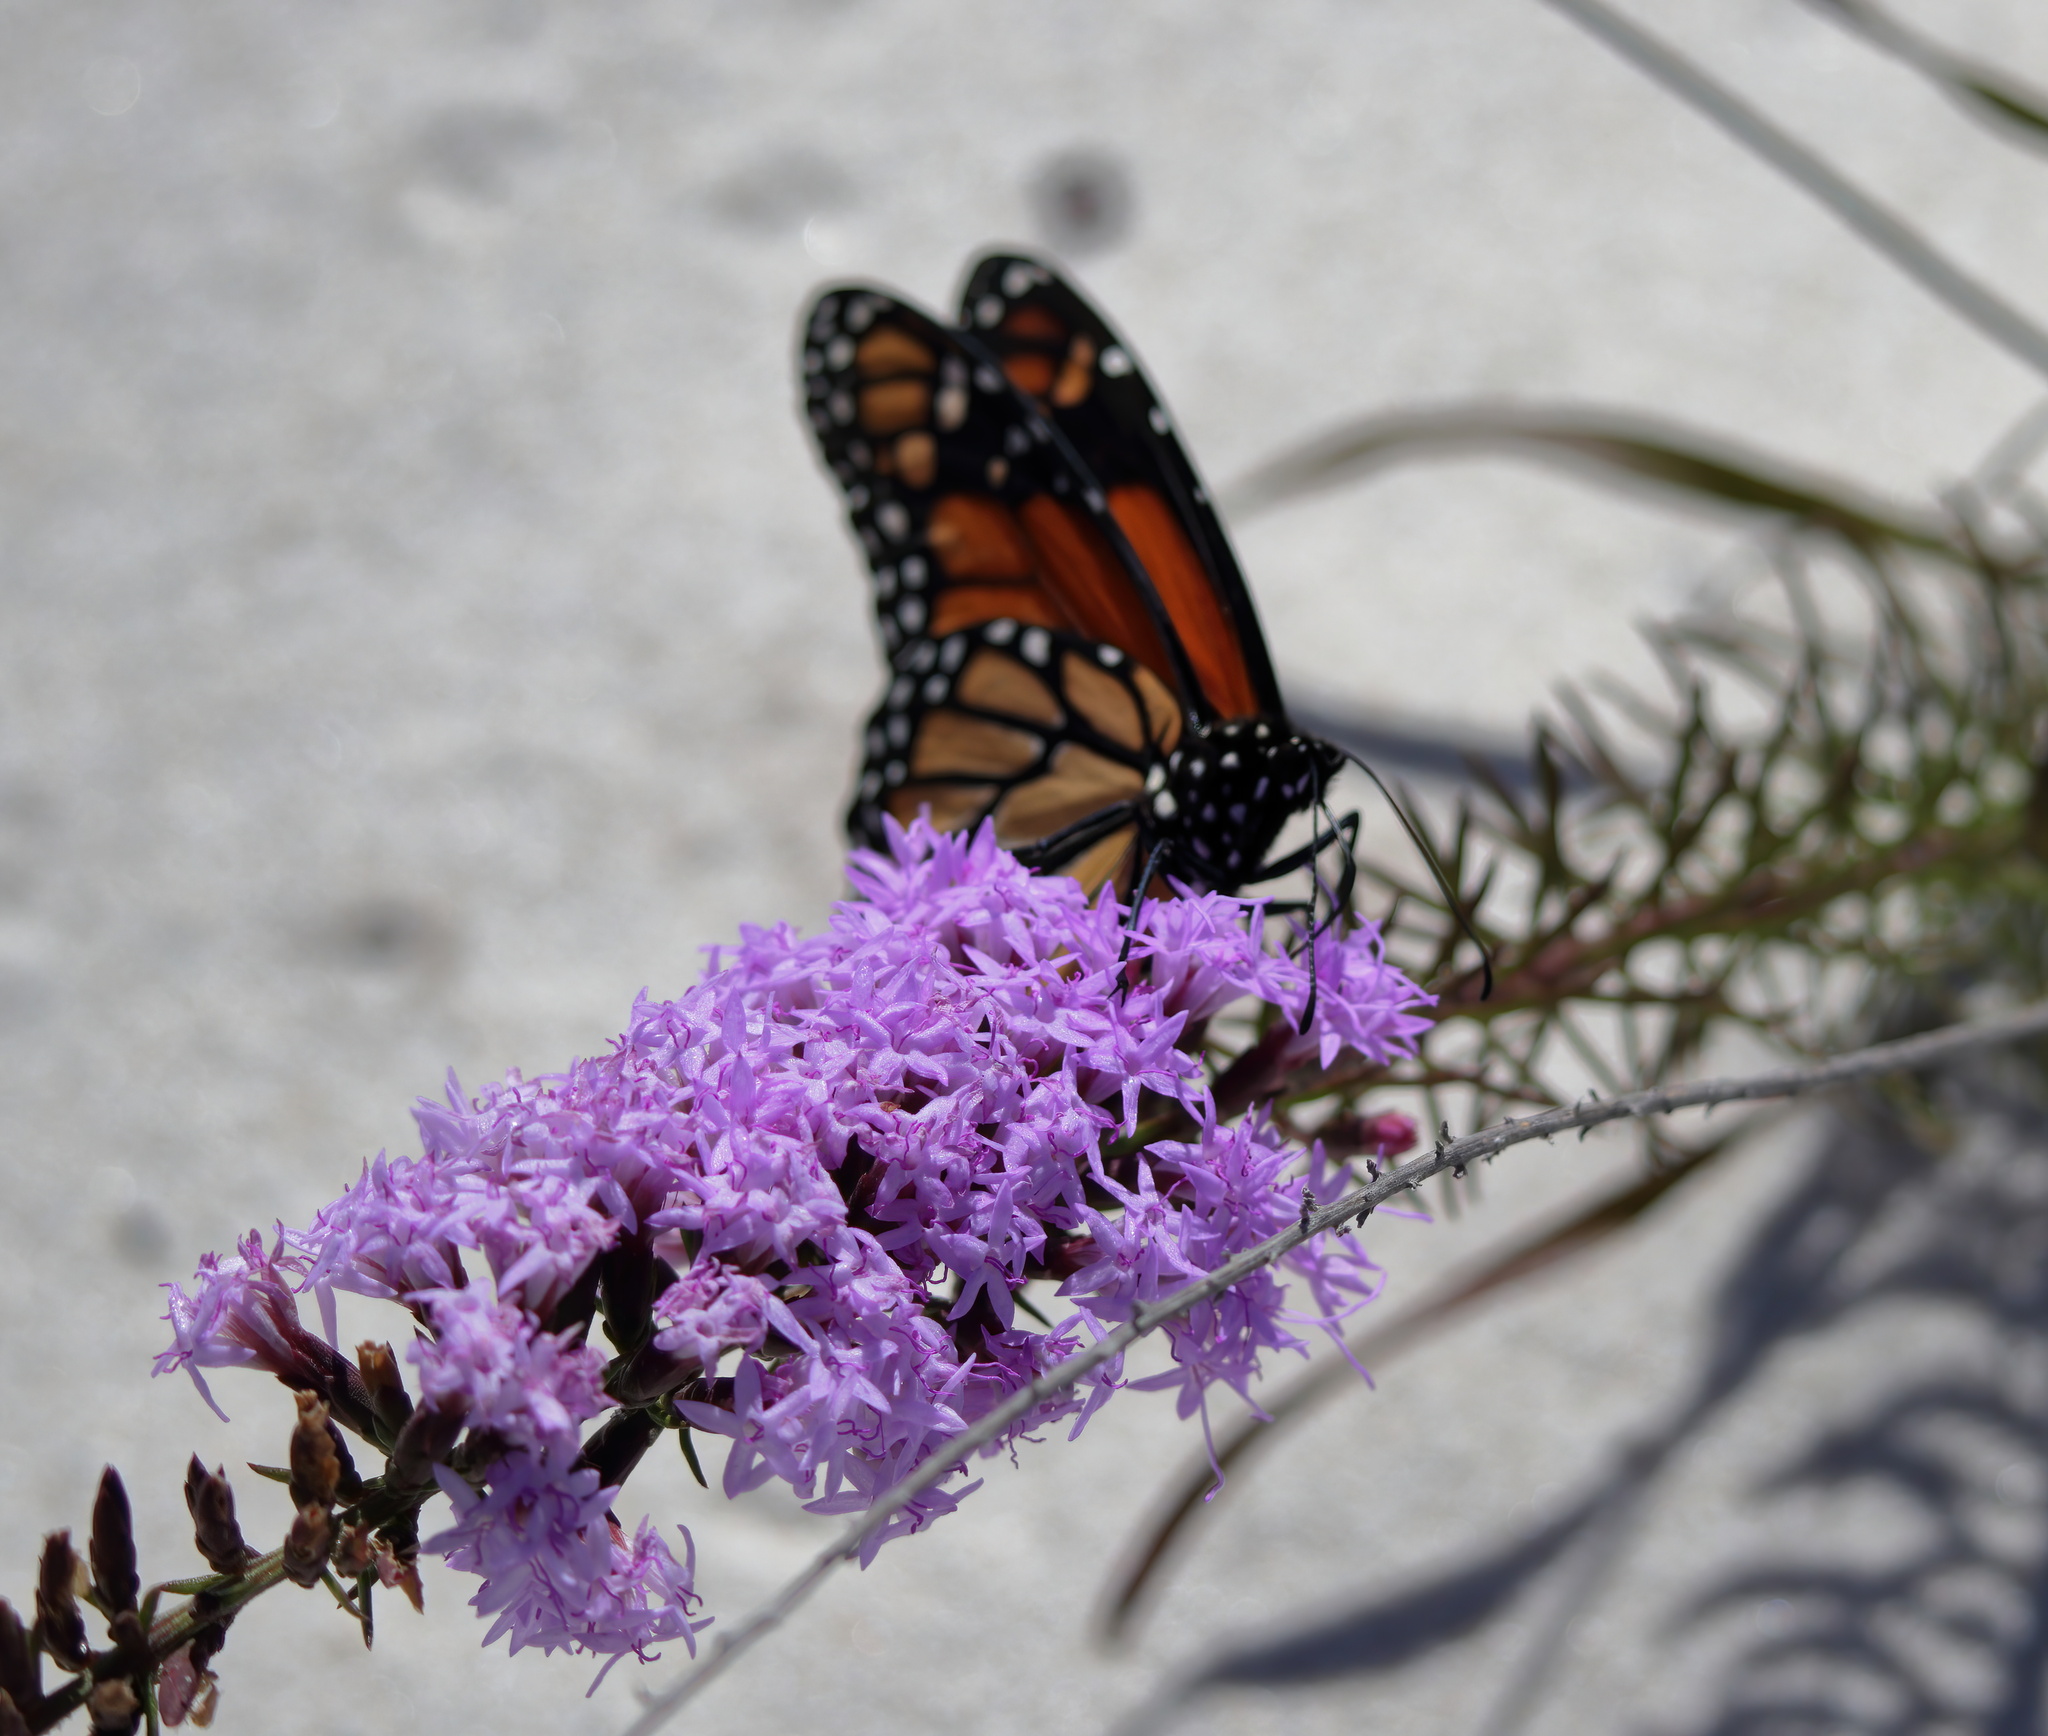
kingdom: Animalia
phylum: Arthropoda
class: Insecta
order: Lepidoptera
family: Nymphalidae
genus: Danaus
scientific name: Danaus plexippus
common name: Monarch
